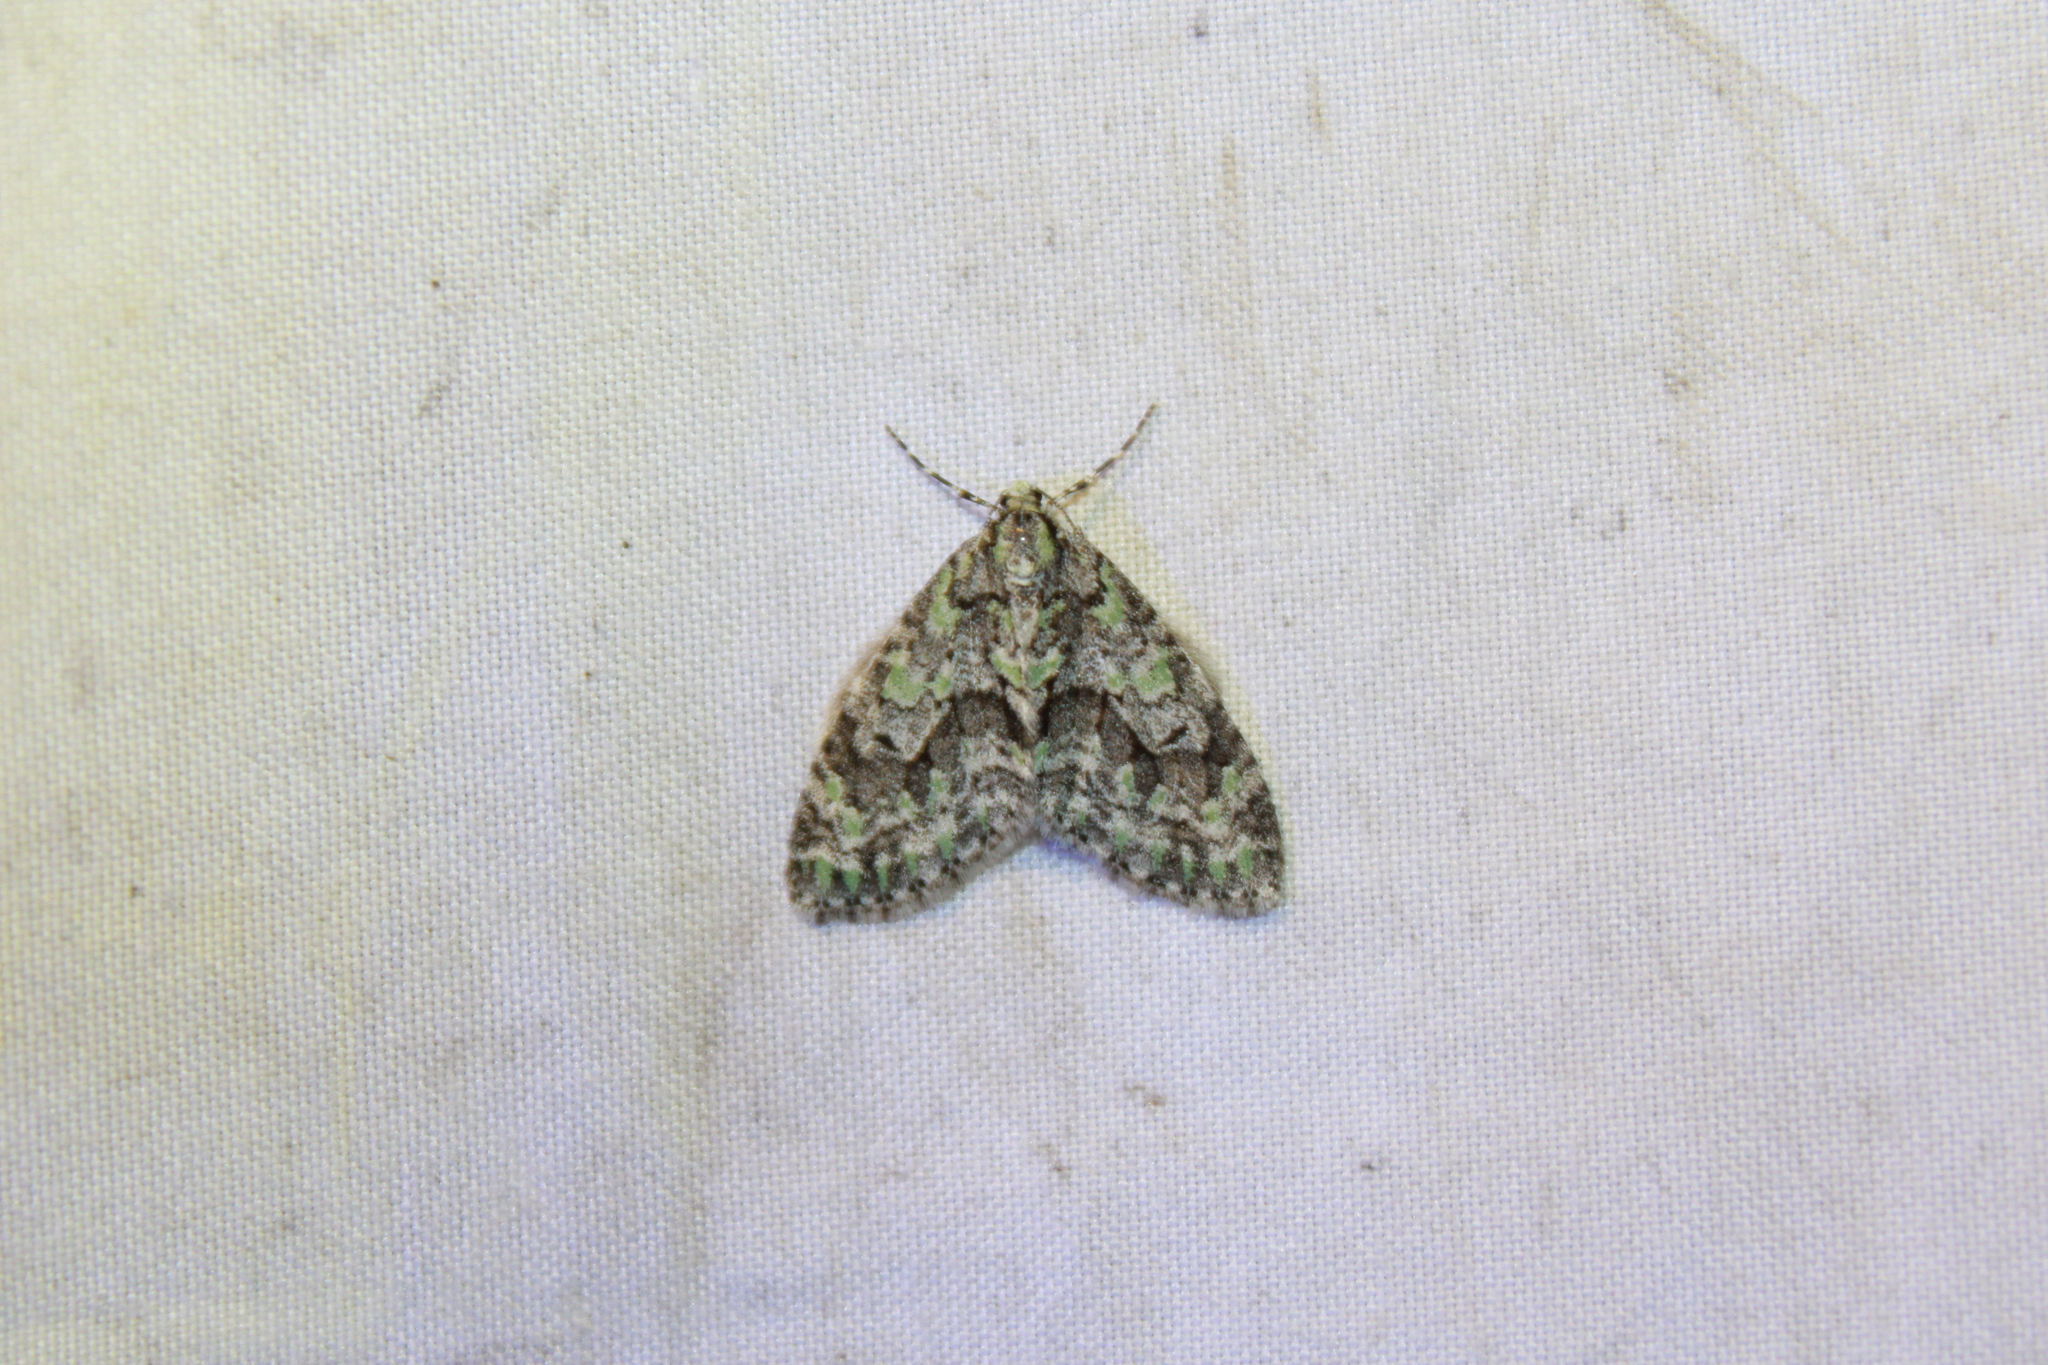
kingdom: Animalia
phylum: Arthropoda
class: Insecta
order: Lepidoptera
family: Geometridae
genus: Cladara
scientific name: Cladara limitaria
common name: Mottled gray carpet
